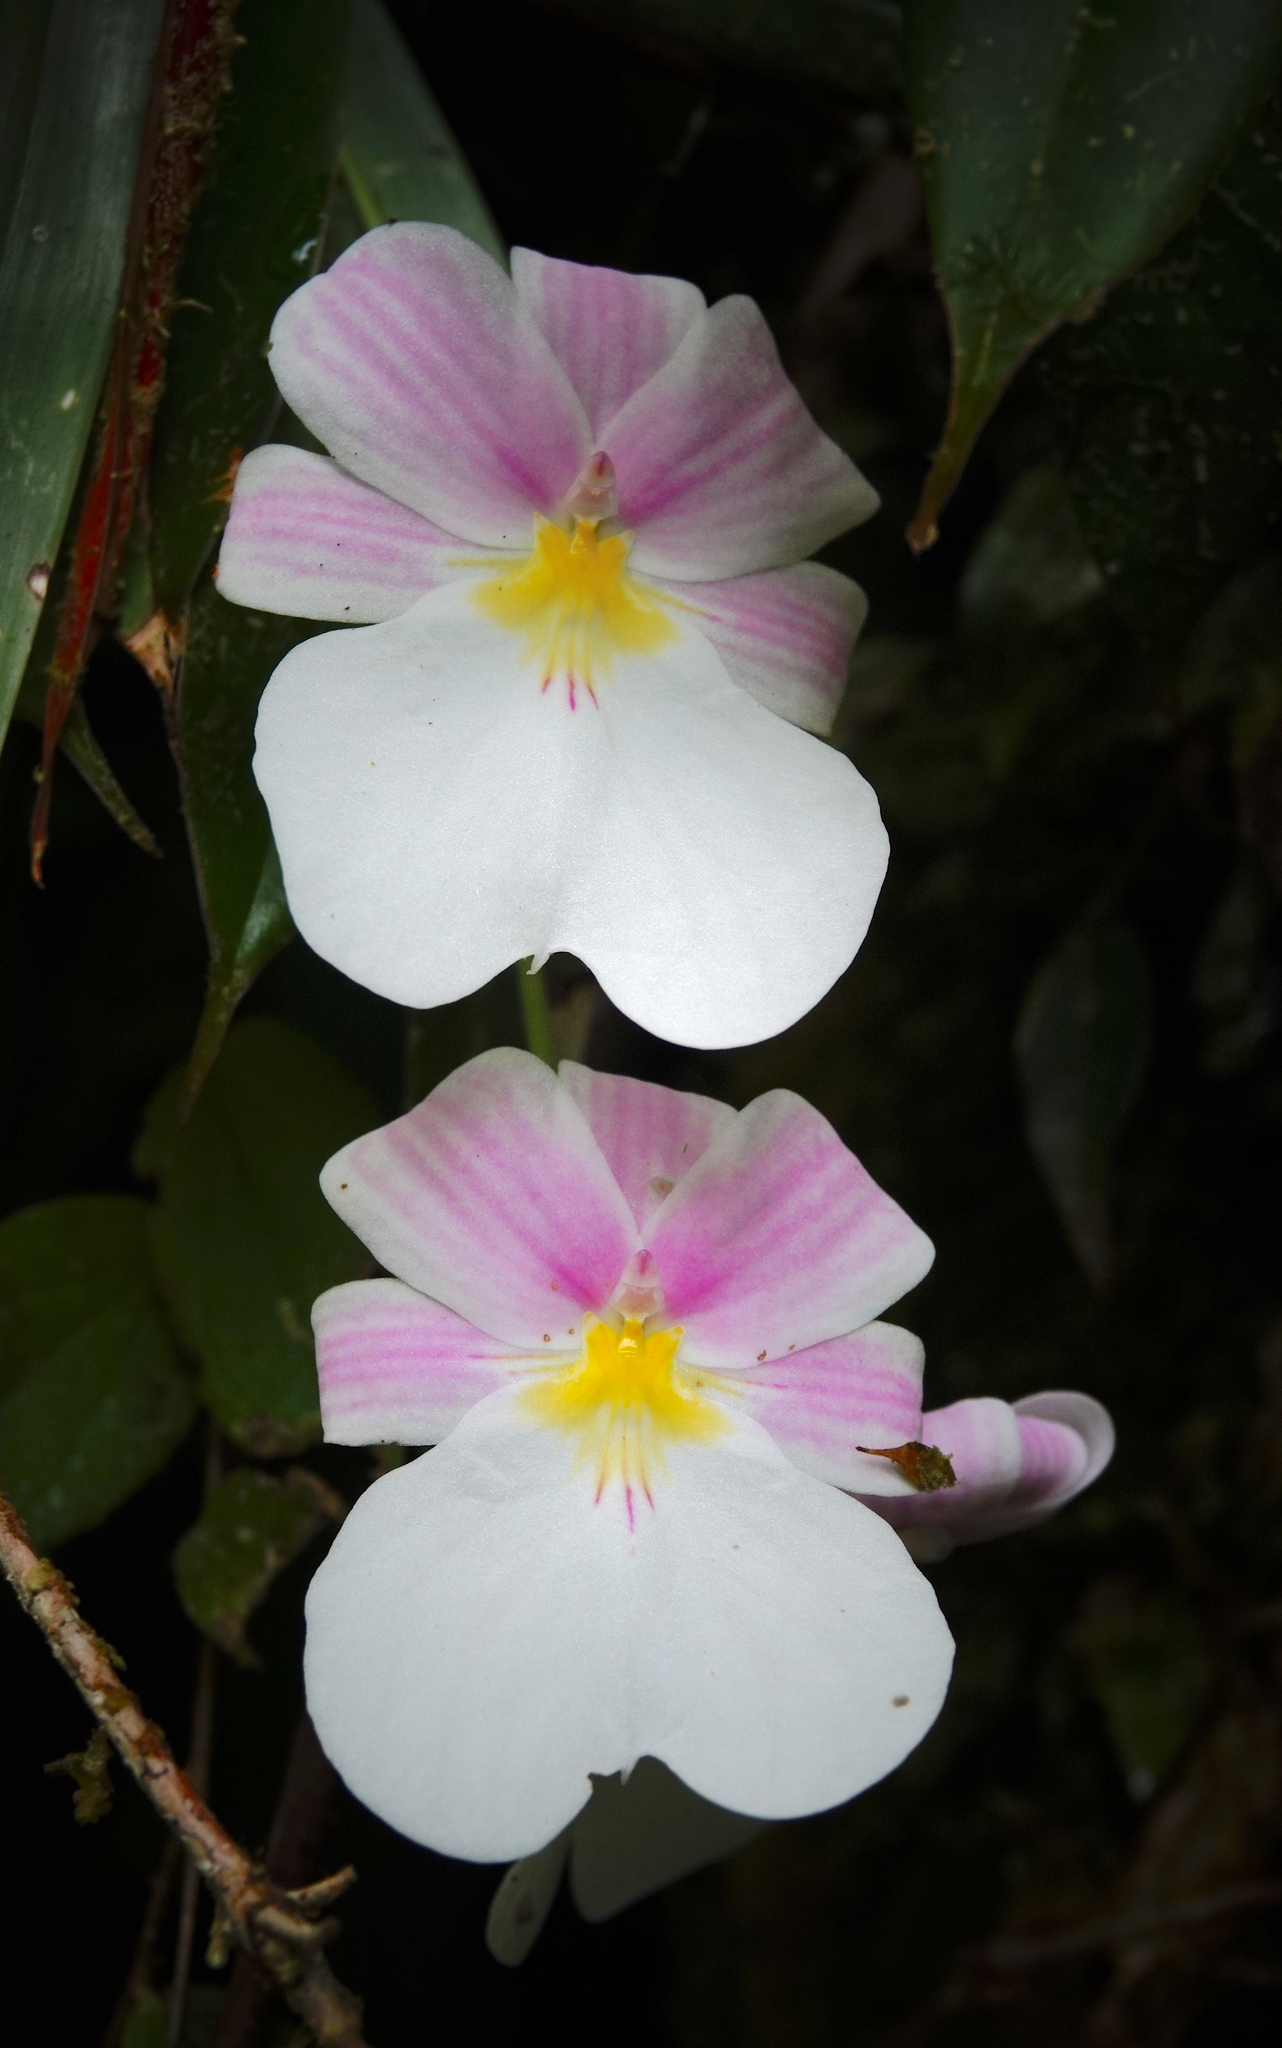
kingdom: Plantae
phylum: Tracheophyta
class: Liliopsida
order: Asparagales
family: Orchidaceae
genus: Miltoniopsis
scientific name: Miltoniopsis vexillaria
